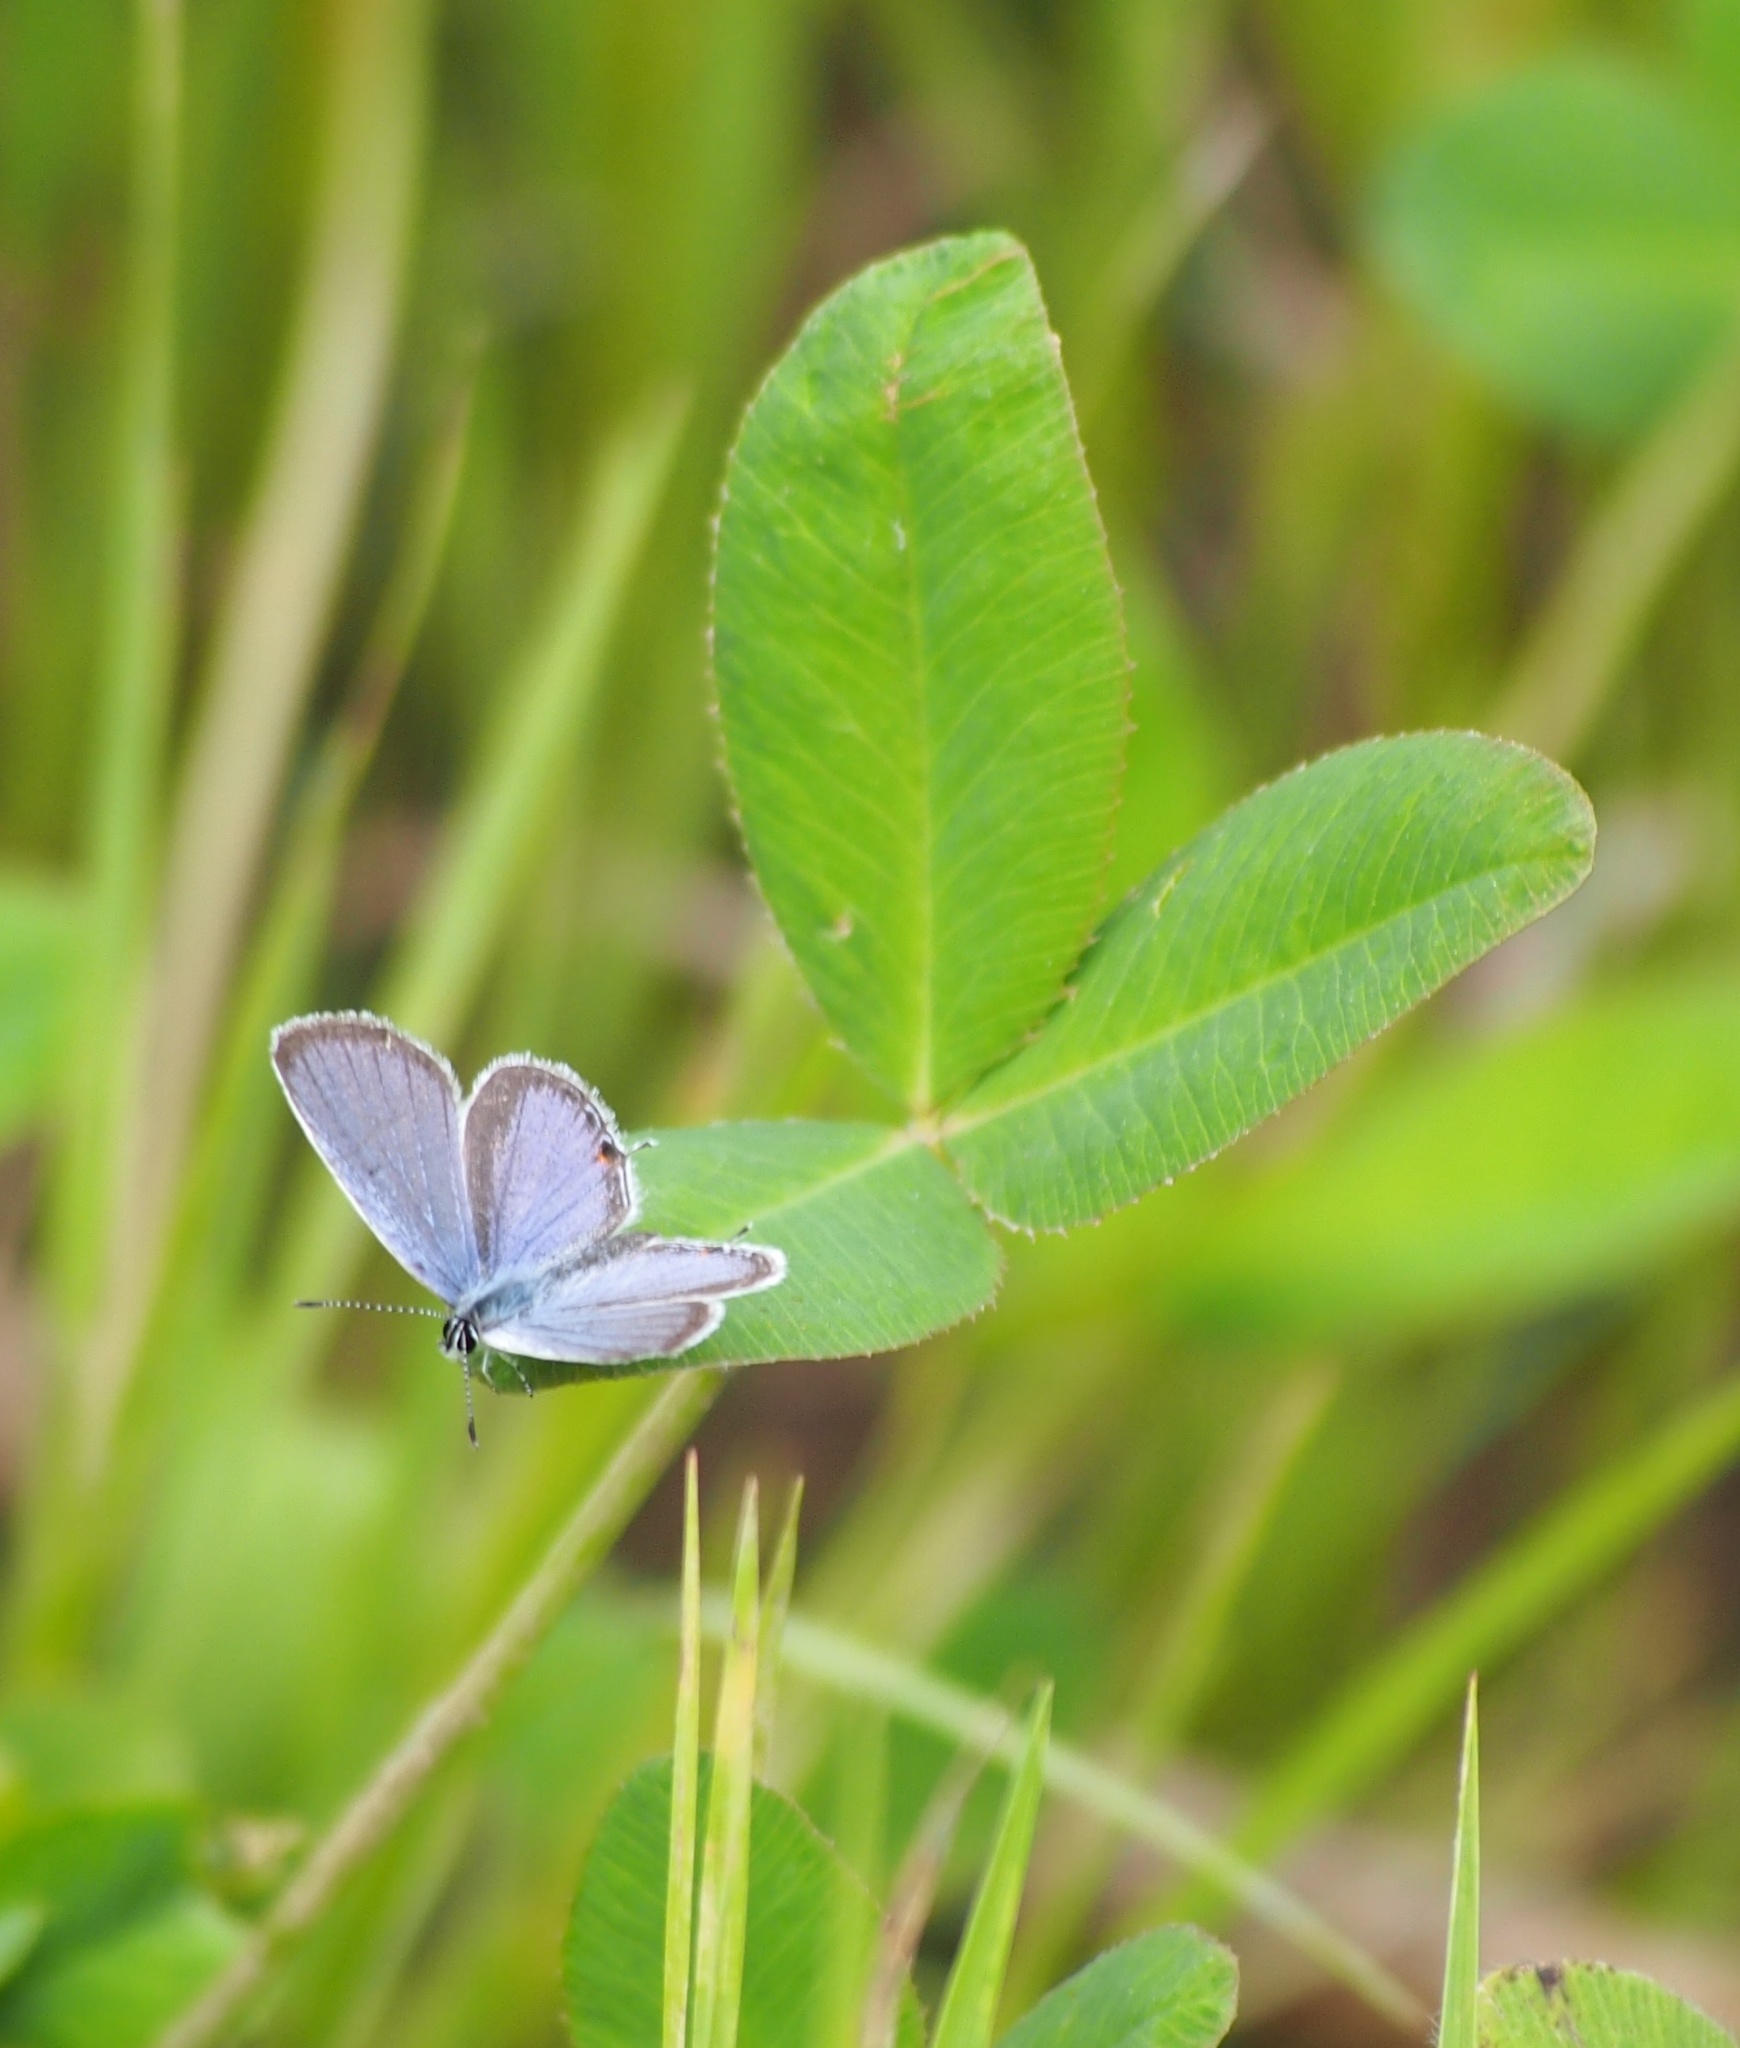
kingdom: Animalia
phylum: Arthropoda
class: Insecta
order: Lepidoptera
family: Lycaenidae
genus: Elkalyce
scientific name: Elkalyce comyntas
